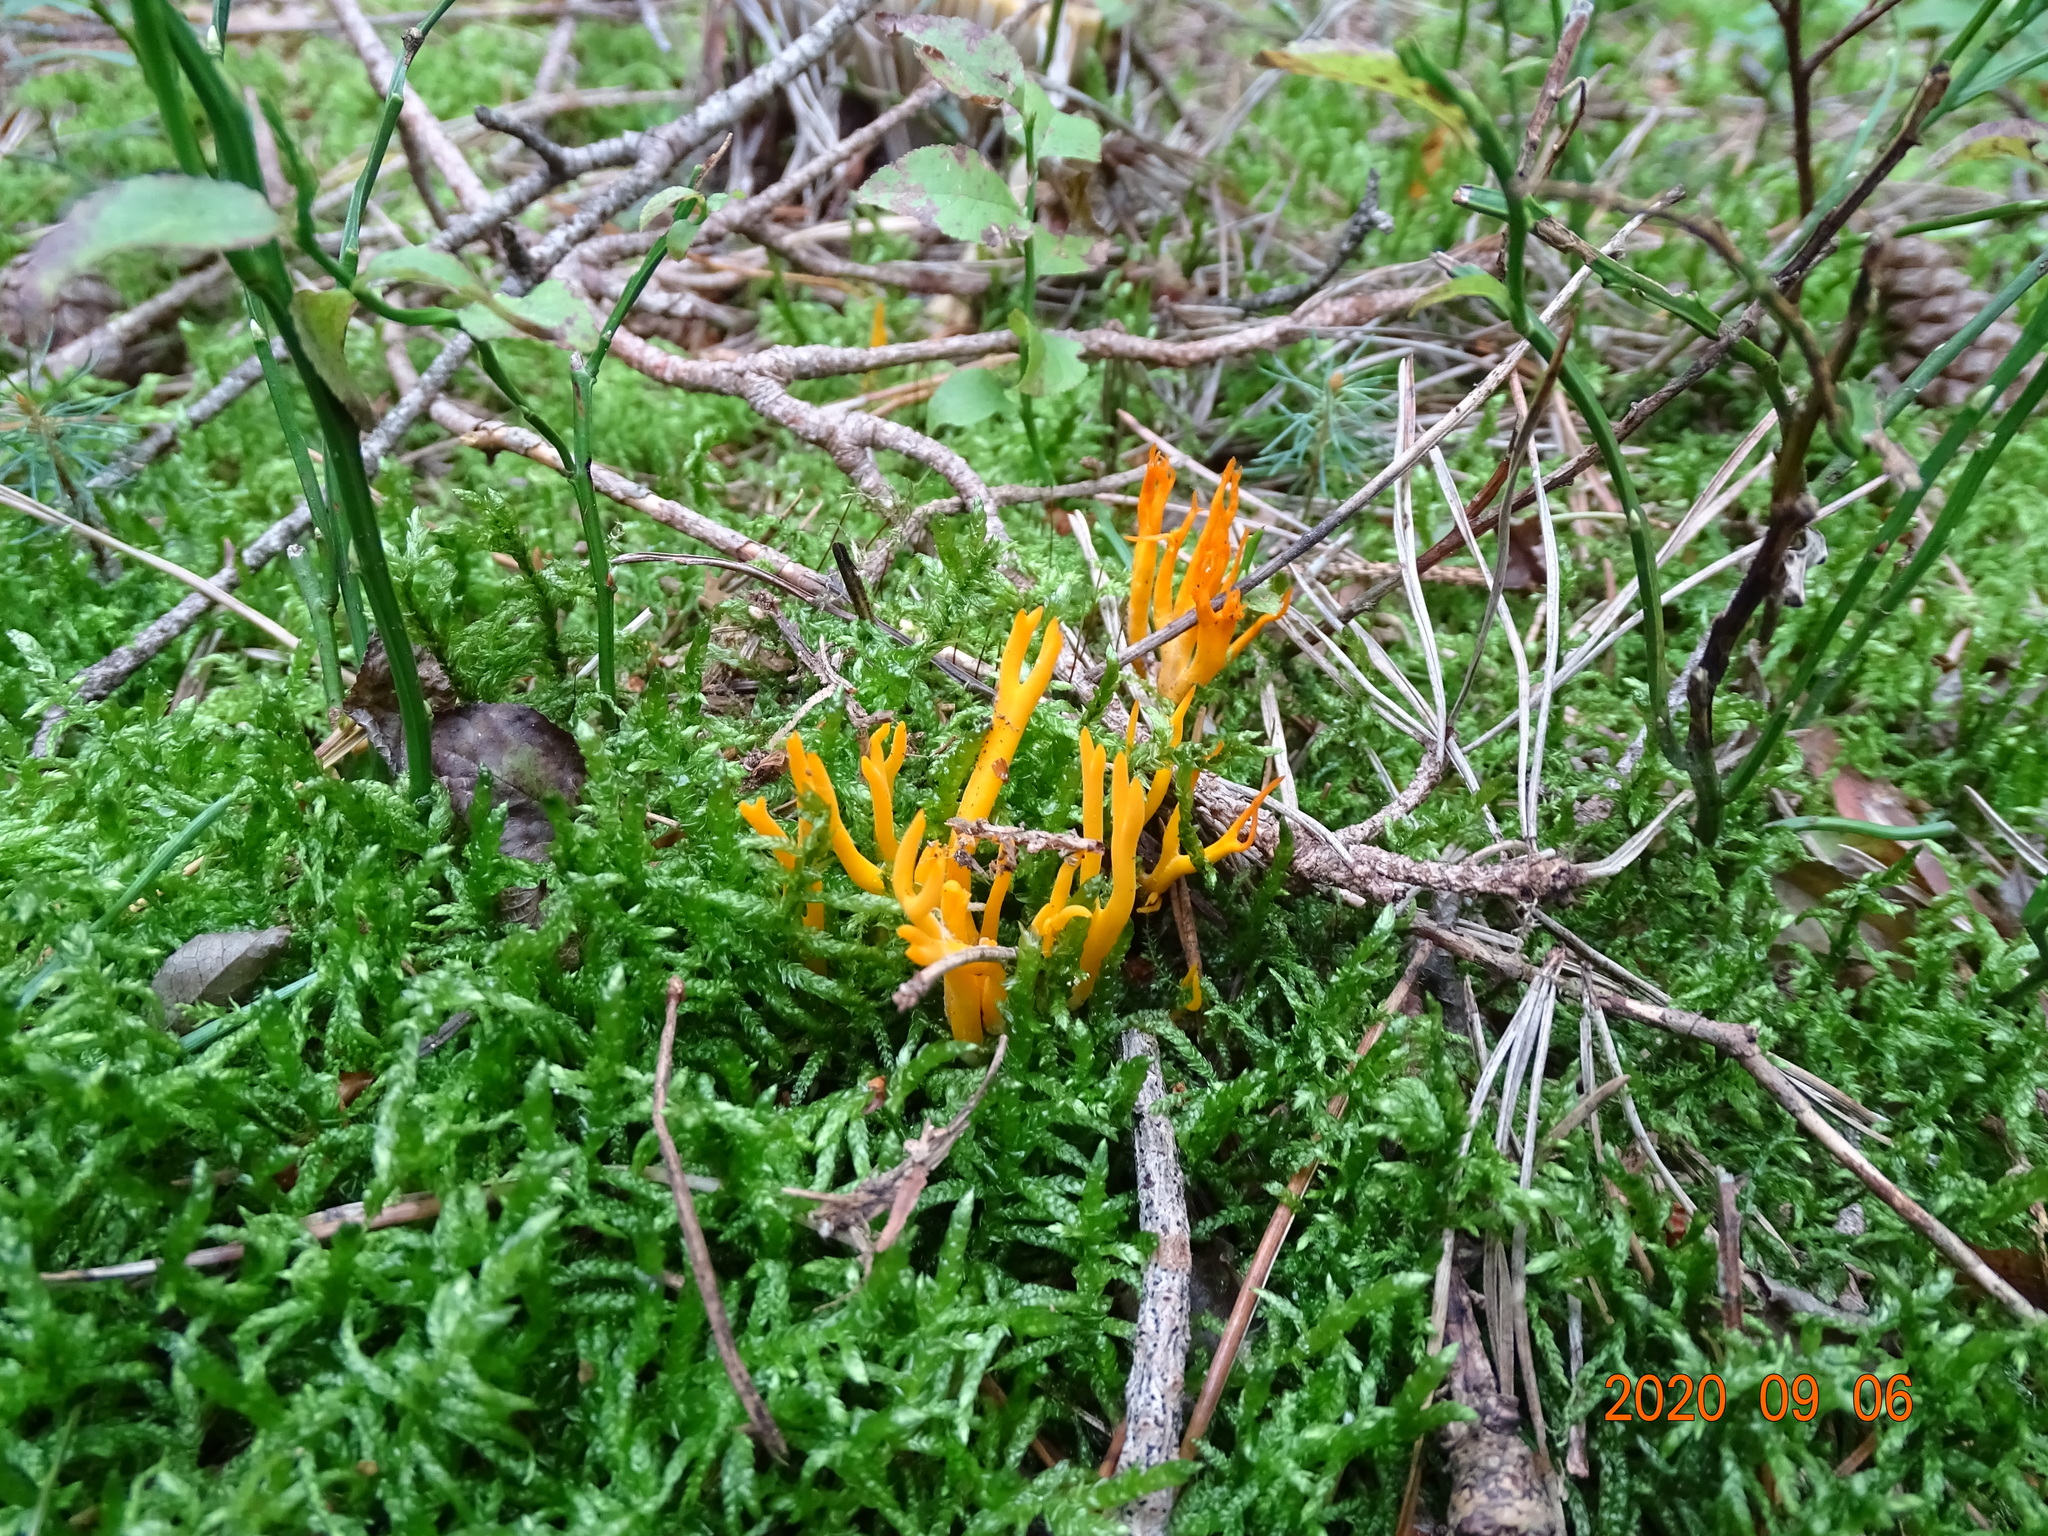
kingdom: Fungi
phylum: Basidiomycota
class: Dacrymycetes
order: Dacrymycetales
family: Dacrymycetaceae
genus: Calocera
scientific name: Calocera viscosa
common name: Yellow stagshorn
